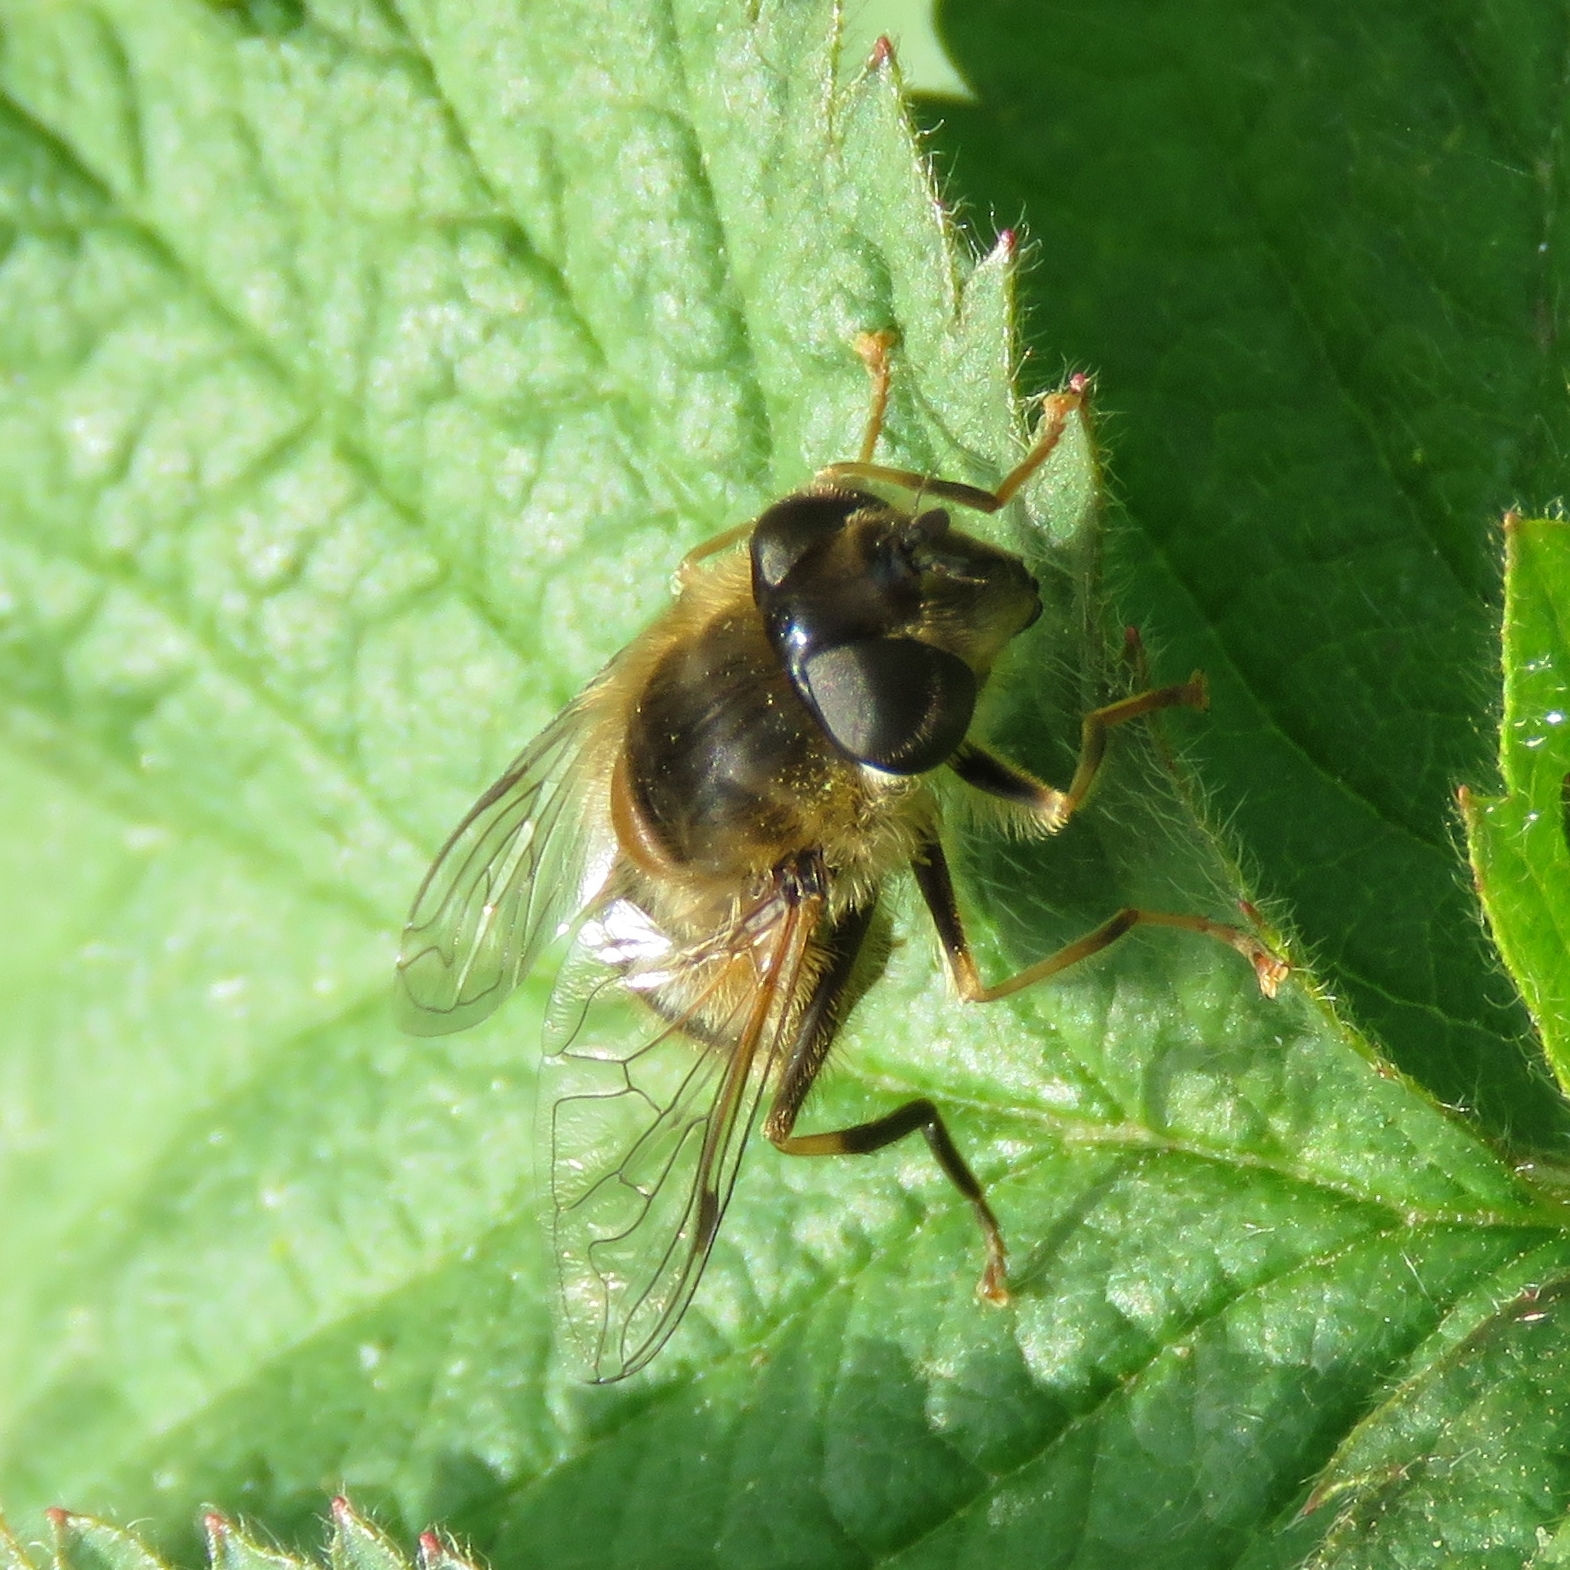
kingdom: Animalia
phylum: Arthropoda
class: Insecta
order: Diptera
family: Syrphidae
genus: Eristalis
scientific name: Eristalis pertinax
